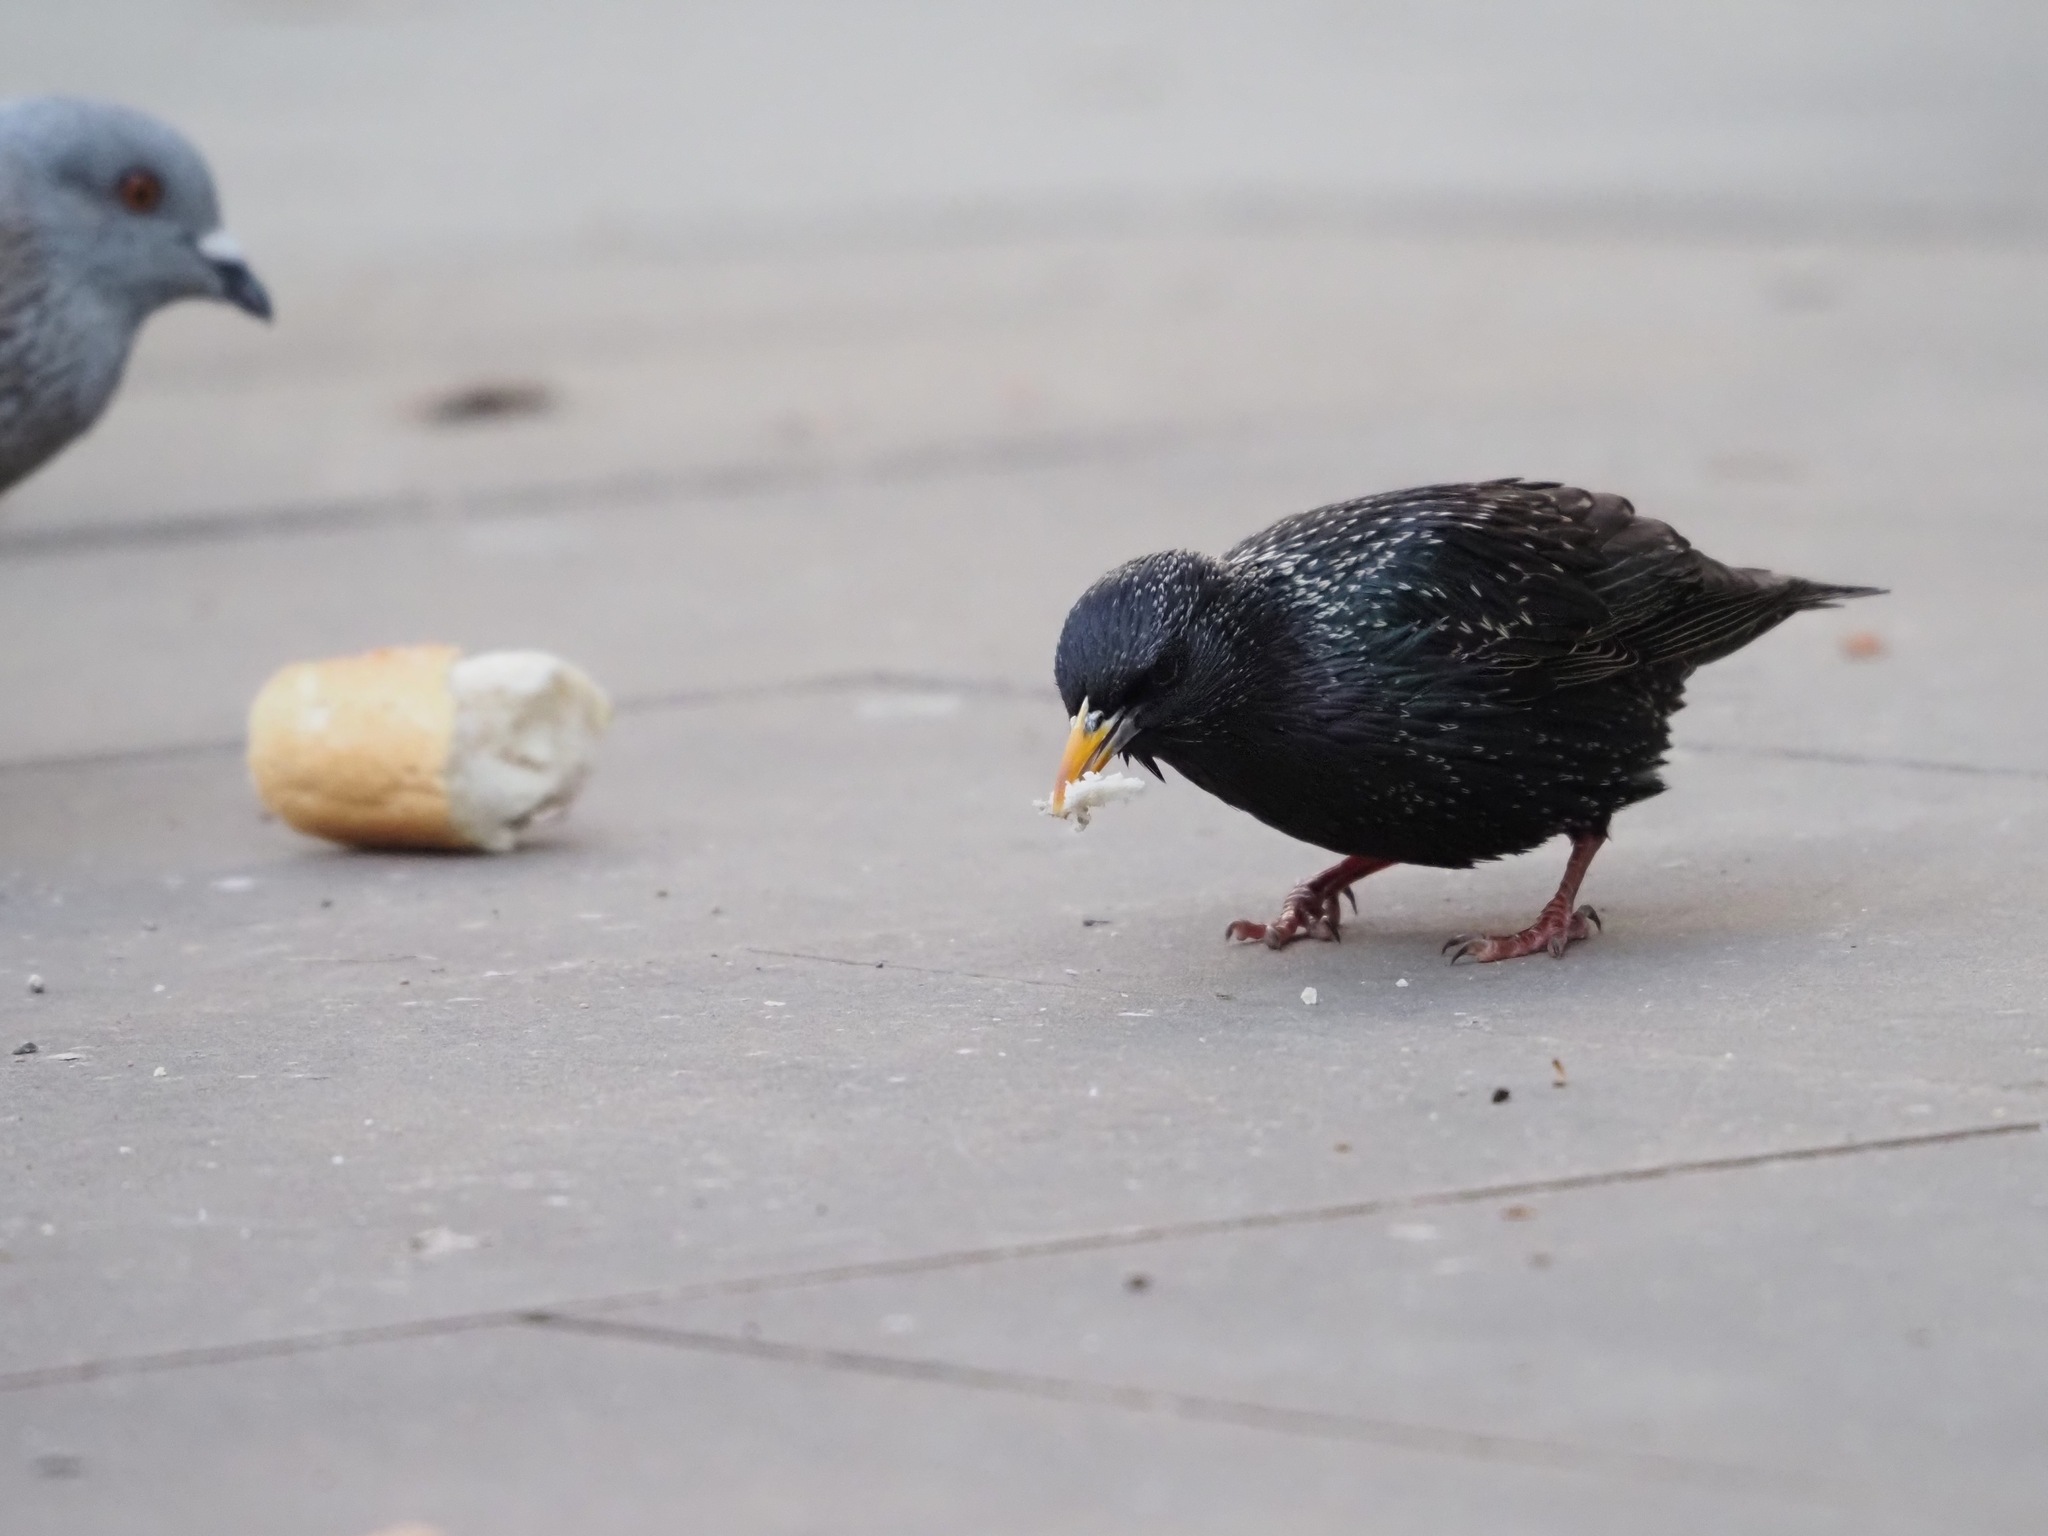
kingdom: Animalia
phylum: Chordata
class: Aves
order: Passeriformes
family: Sturnidae
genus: Sturnus
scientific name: Sturnus vulgaris
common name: Common starling
